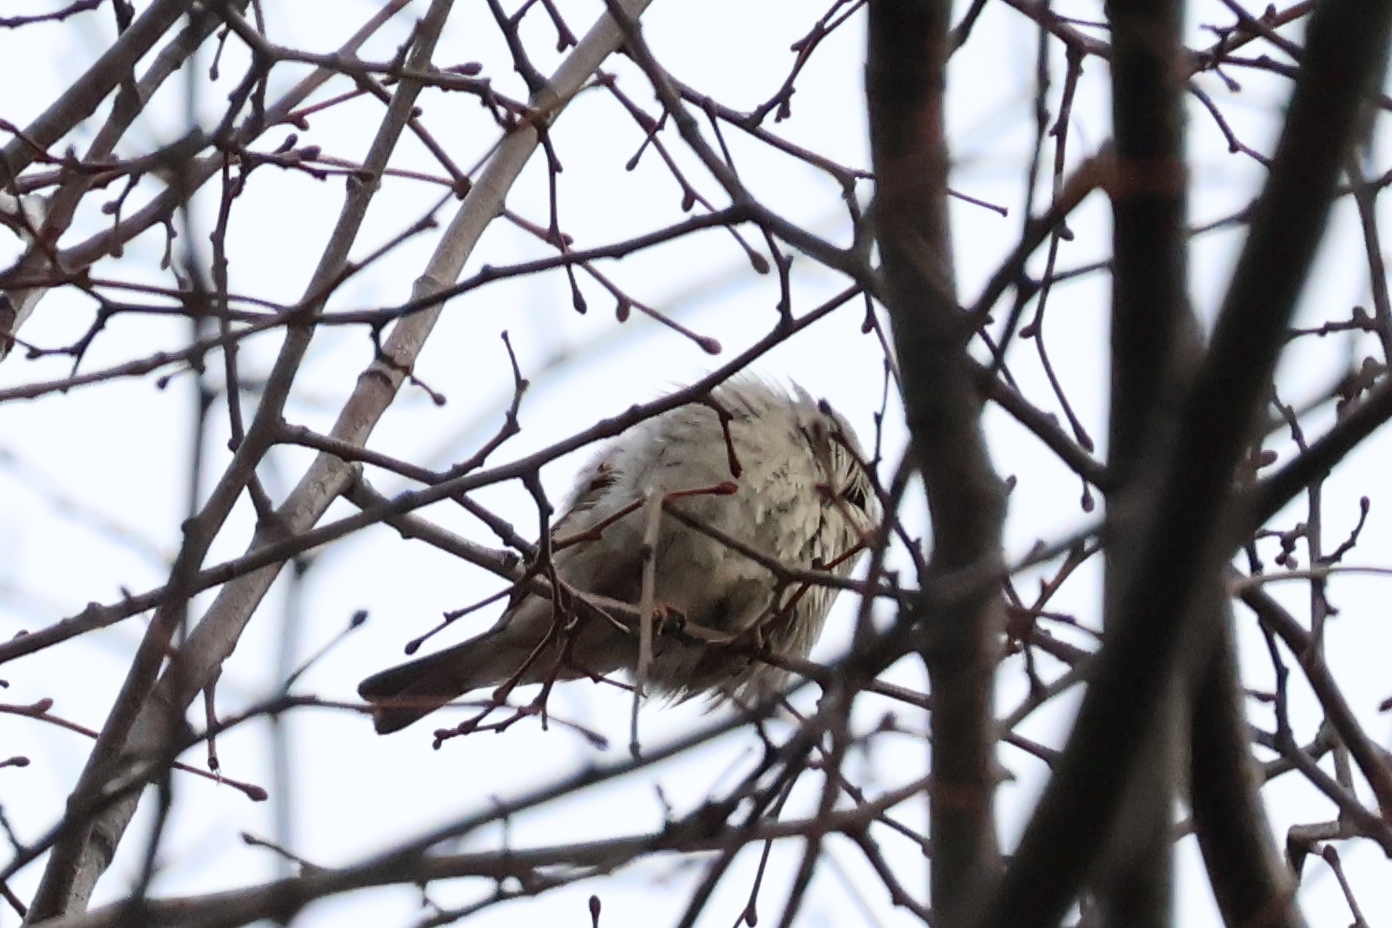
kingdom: Animalia
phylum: Chordata
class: Aves
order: Passeriformes
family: Passeridae
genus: Passer
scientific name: Passer domesticus
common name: House sparrow
